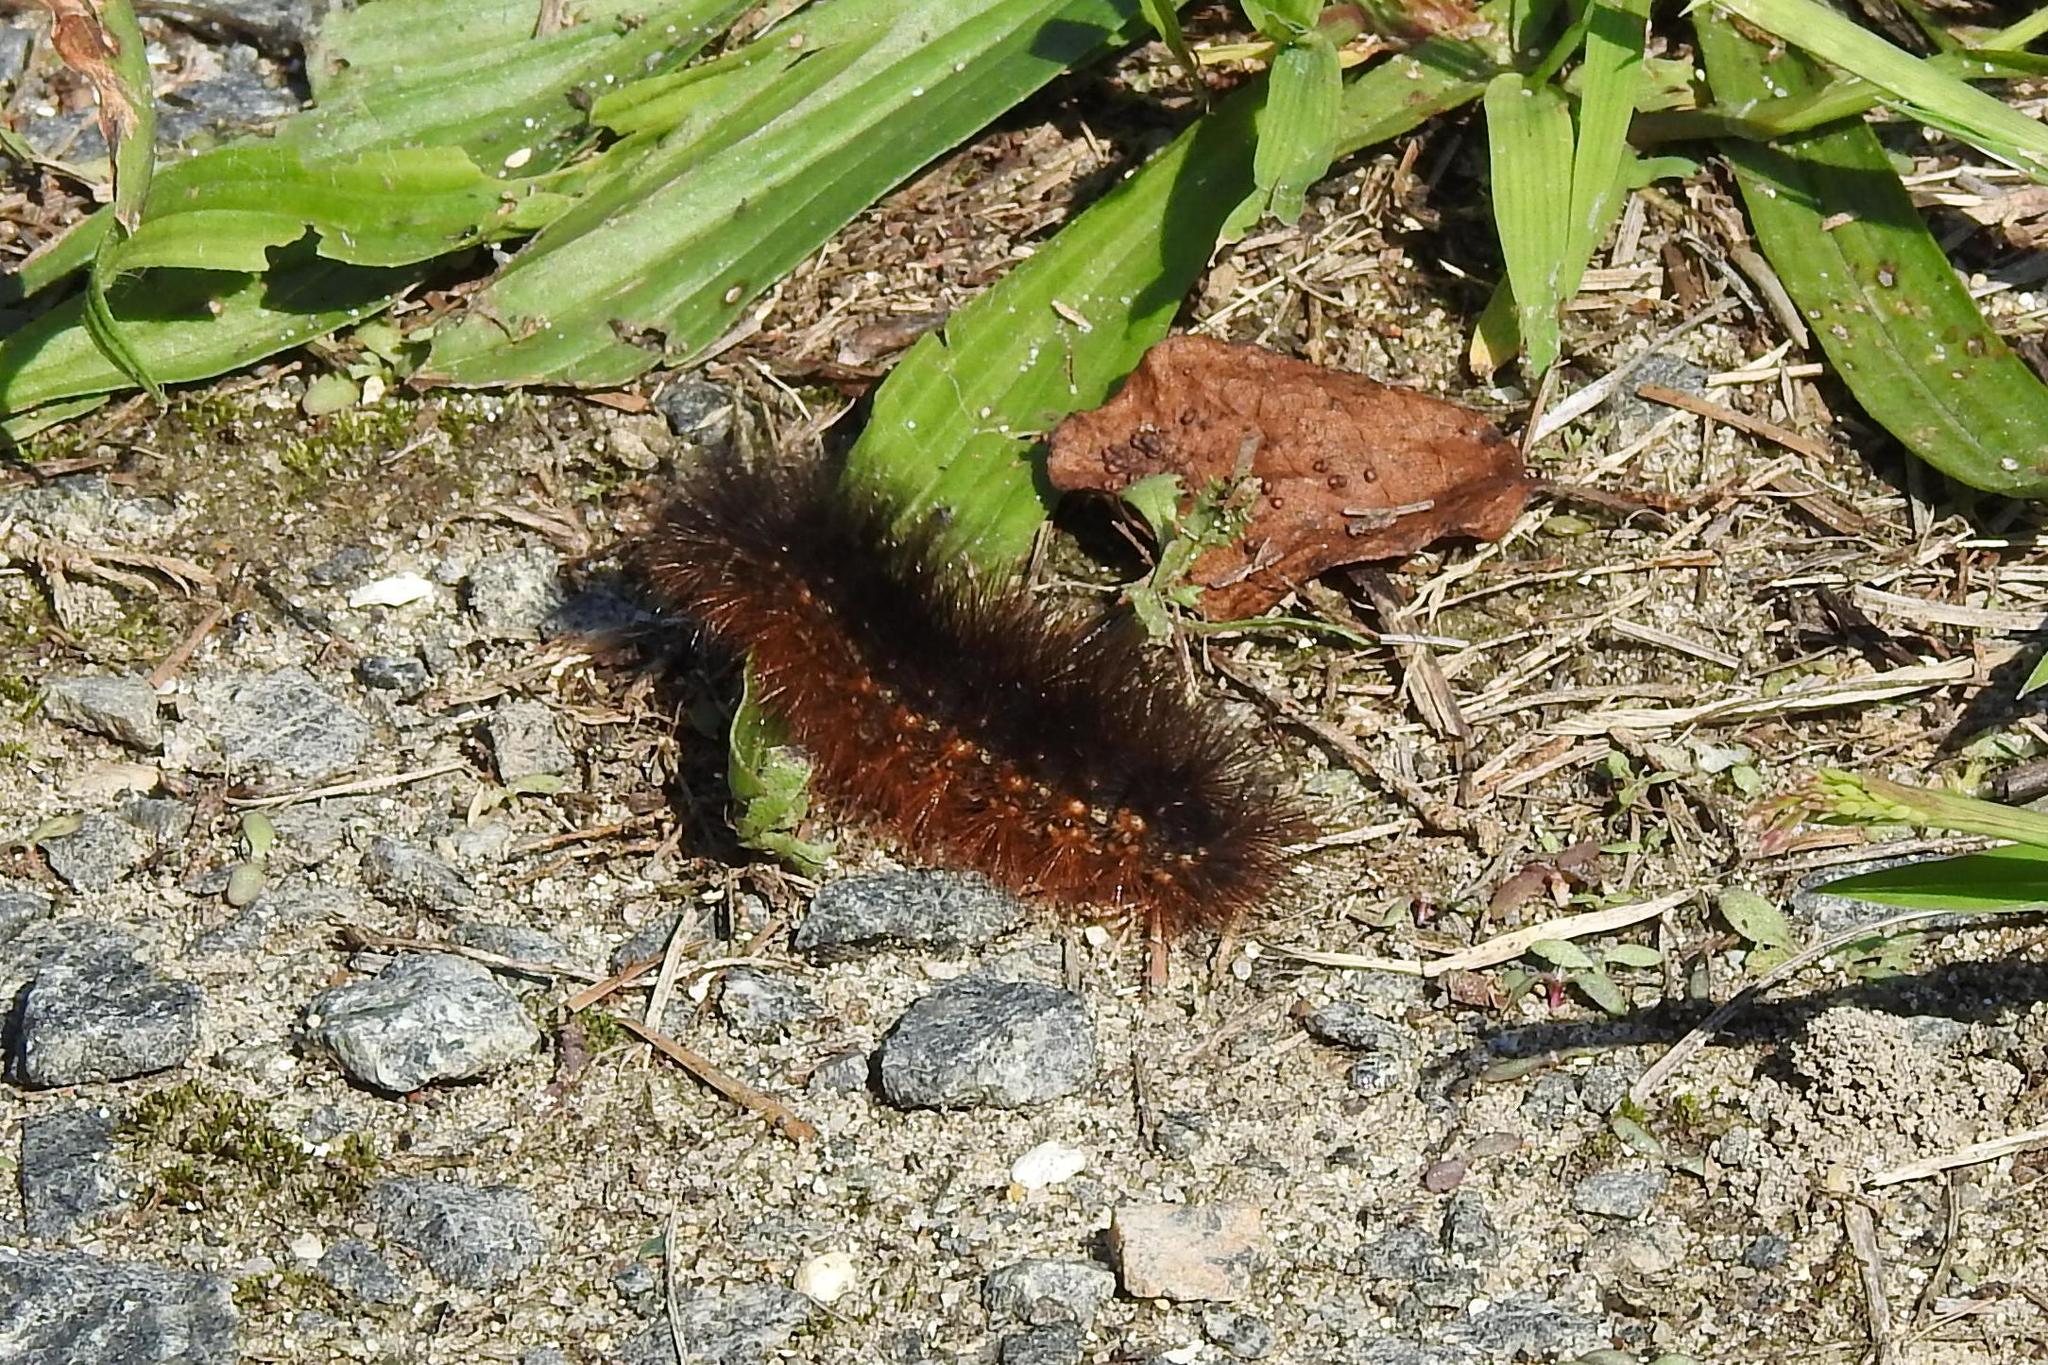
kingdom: Animalia
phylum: Arthropoda
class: Insecta
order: Lepidoptera
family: Erebidae
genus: Estigmene
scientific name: Estigmene acrea
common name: Salt marsh moth
